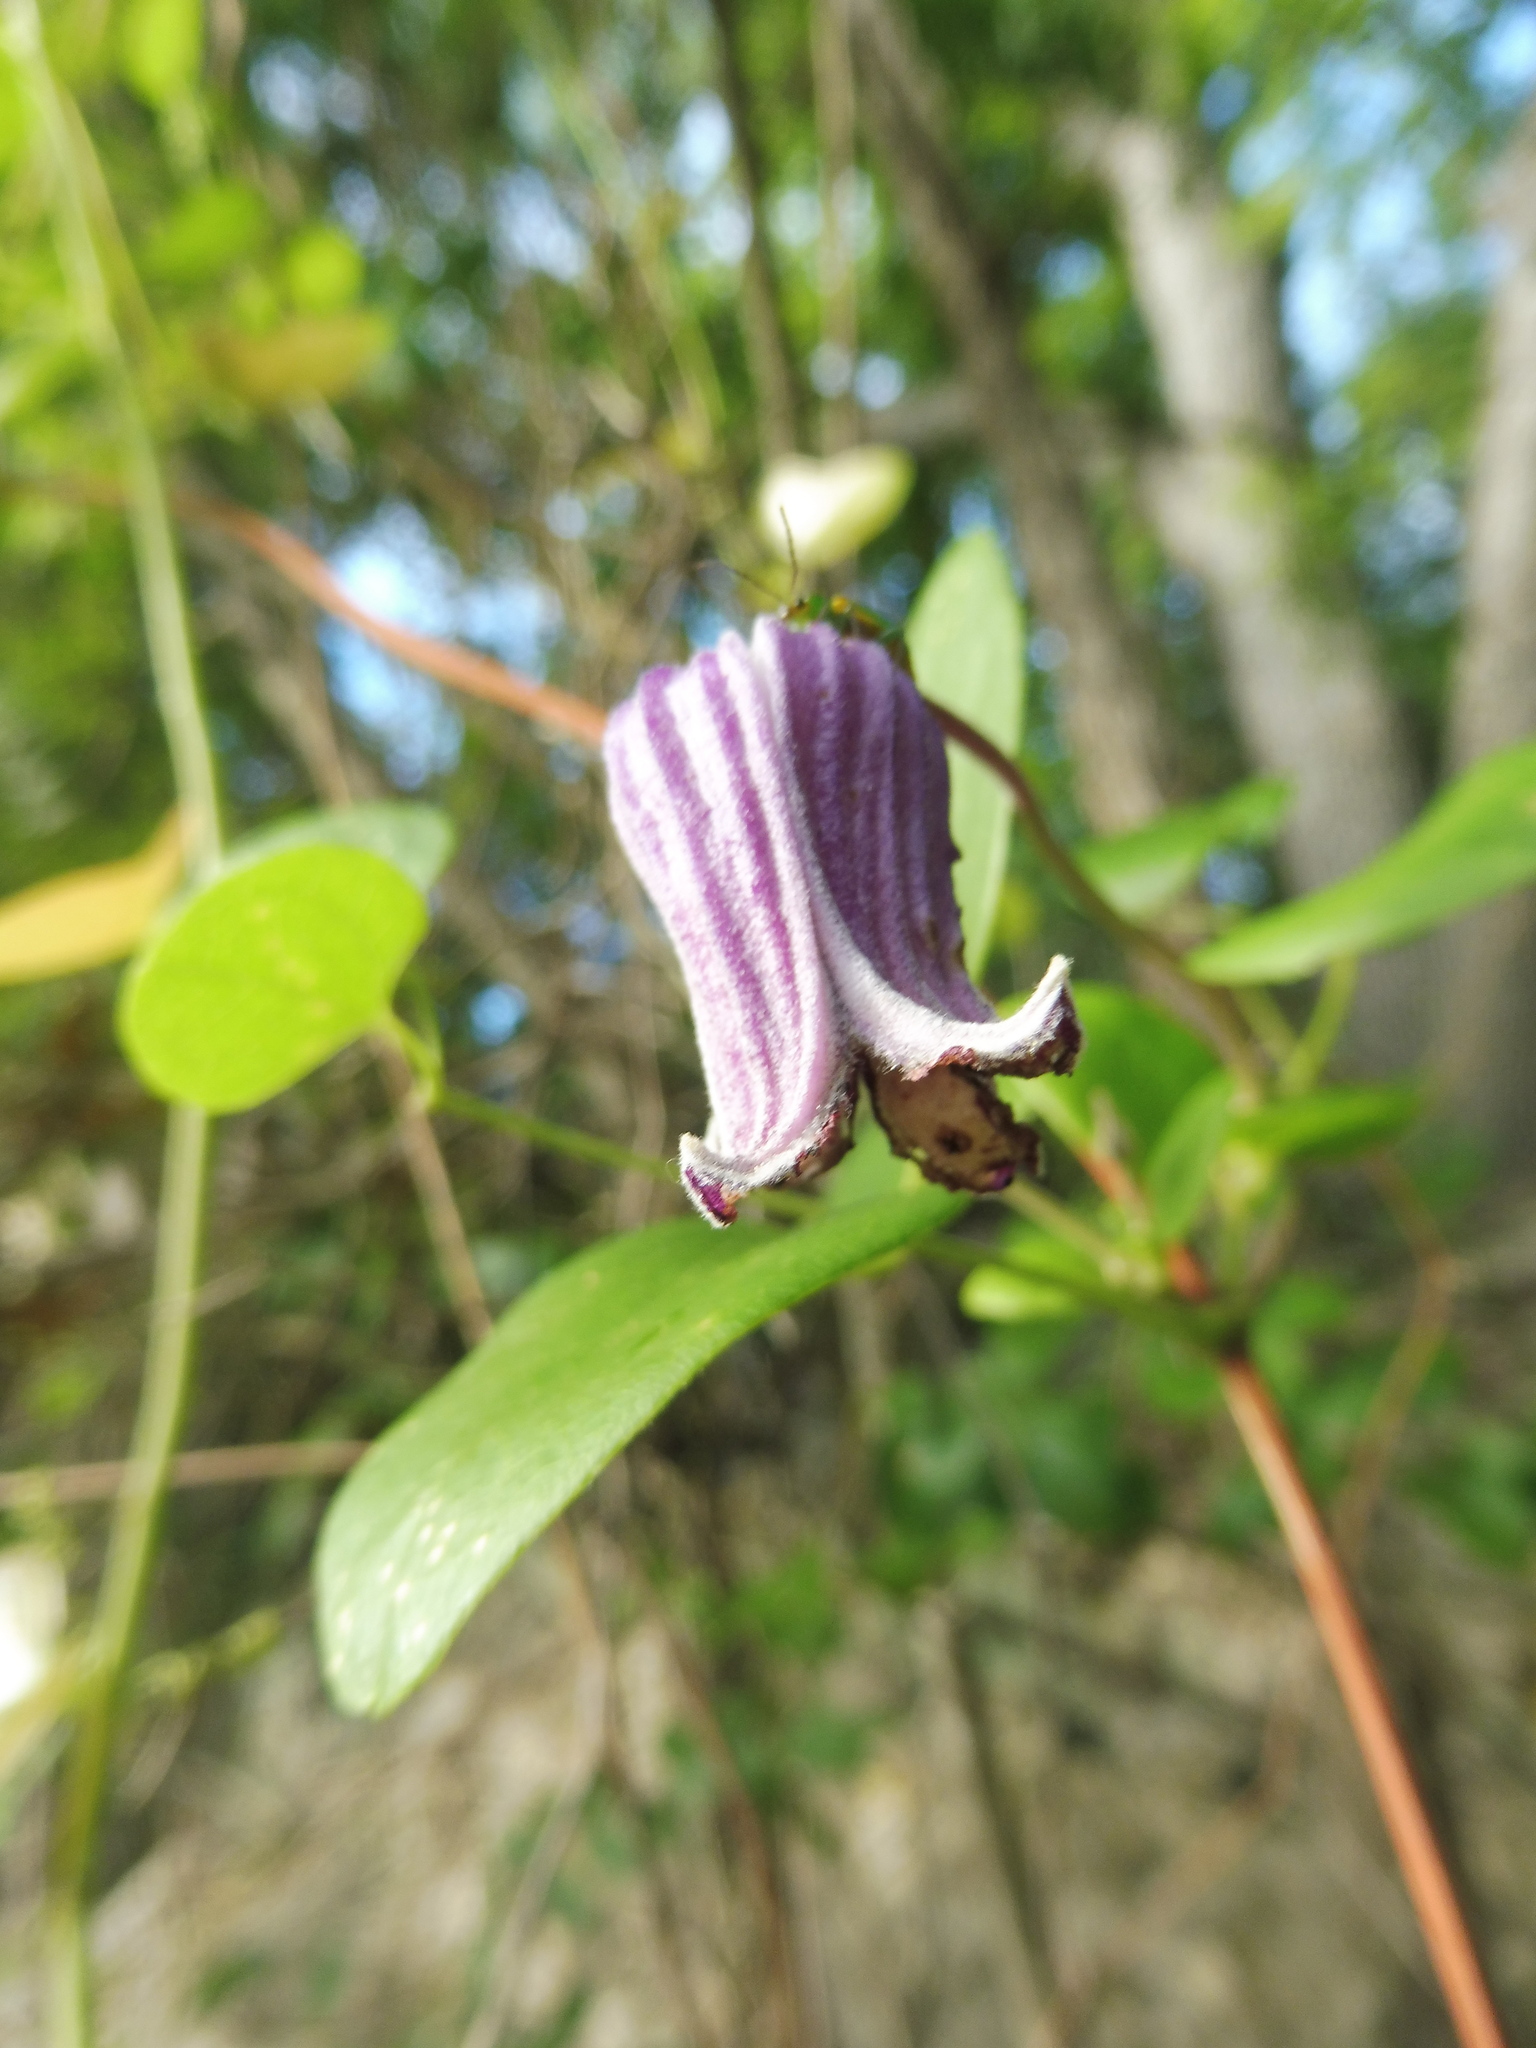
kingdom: Plantae
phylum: Tracheophyta
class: Magnoliopsida
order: Ranunculales
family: Ranunculaceae
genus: Clematis
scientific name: Clematis pitcheri
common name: Bellflower clematis
